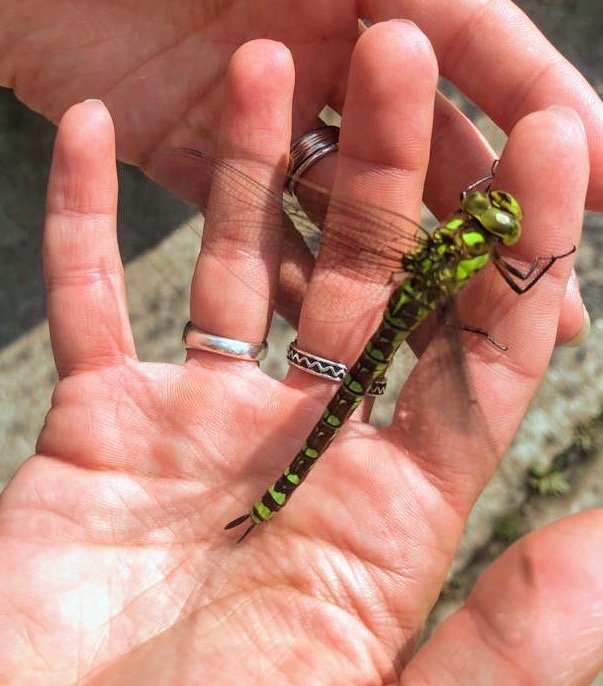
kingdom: Animalia
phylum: Arthropoda
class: Insecta
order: Odonata
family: Aeshnidae
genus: Aeshna
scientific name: Aeshna cyanea
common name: Southern hawker
